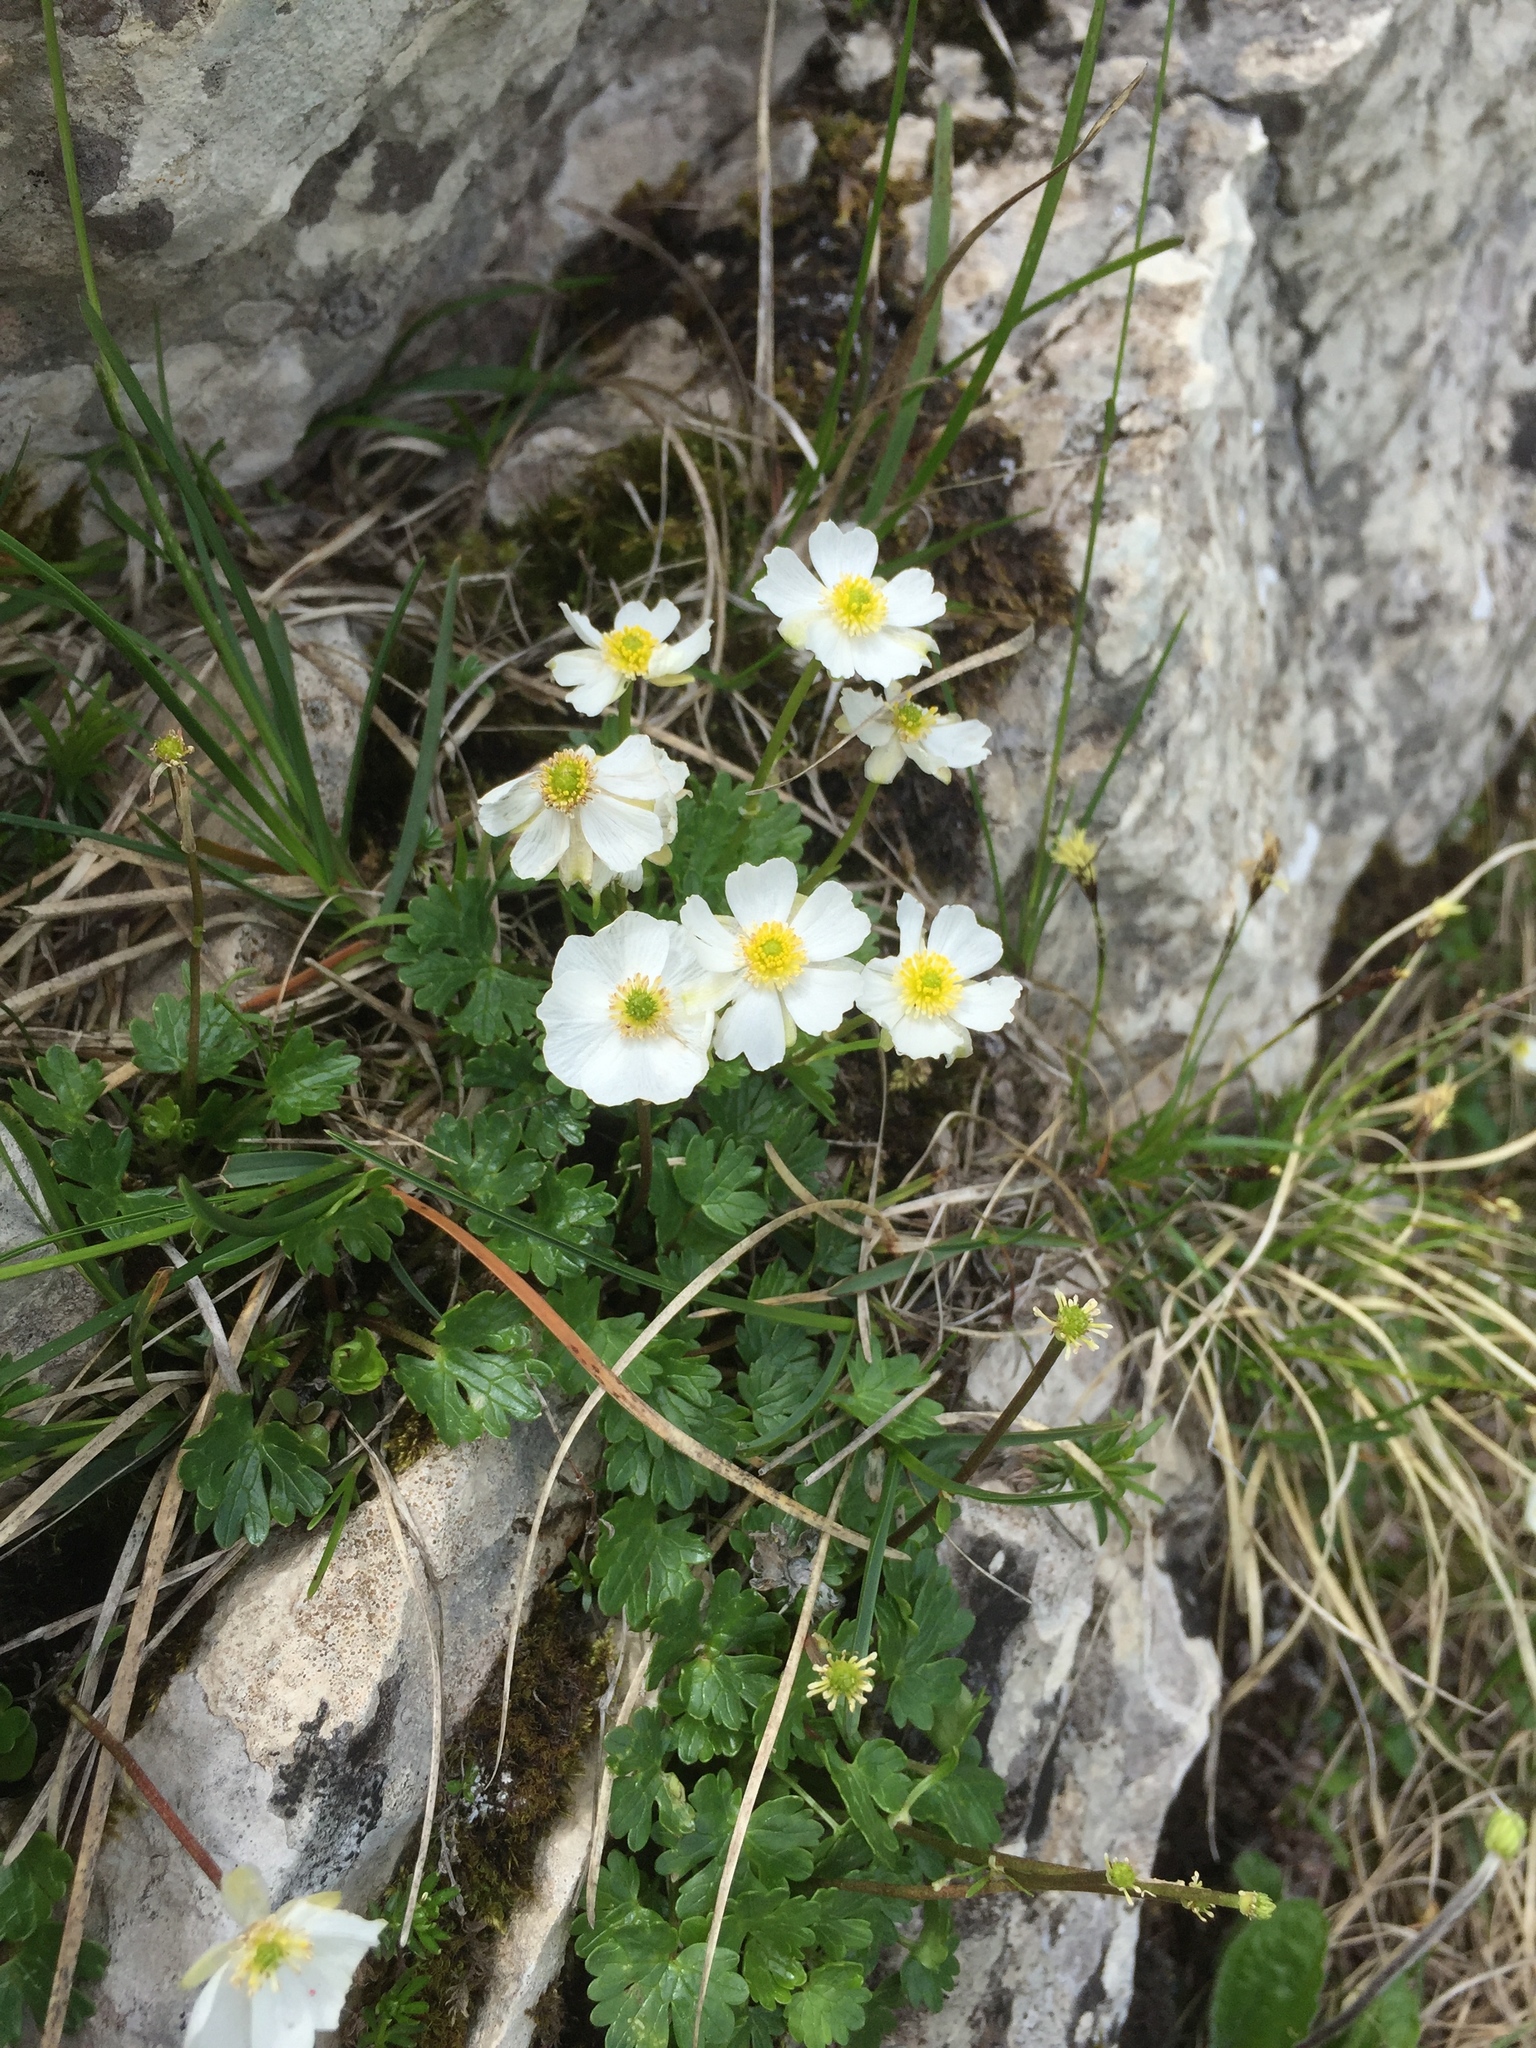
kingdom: Plantae
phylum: Tracheophyta
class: Magnoliopsida
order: Ranunculales
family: Ranunculaceae
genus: Ranunculus
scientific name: Ranunculus alpestris
